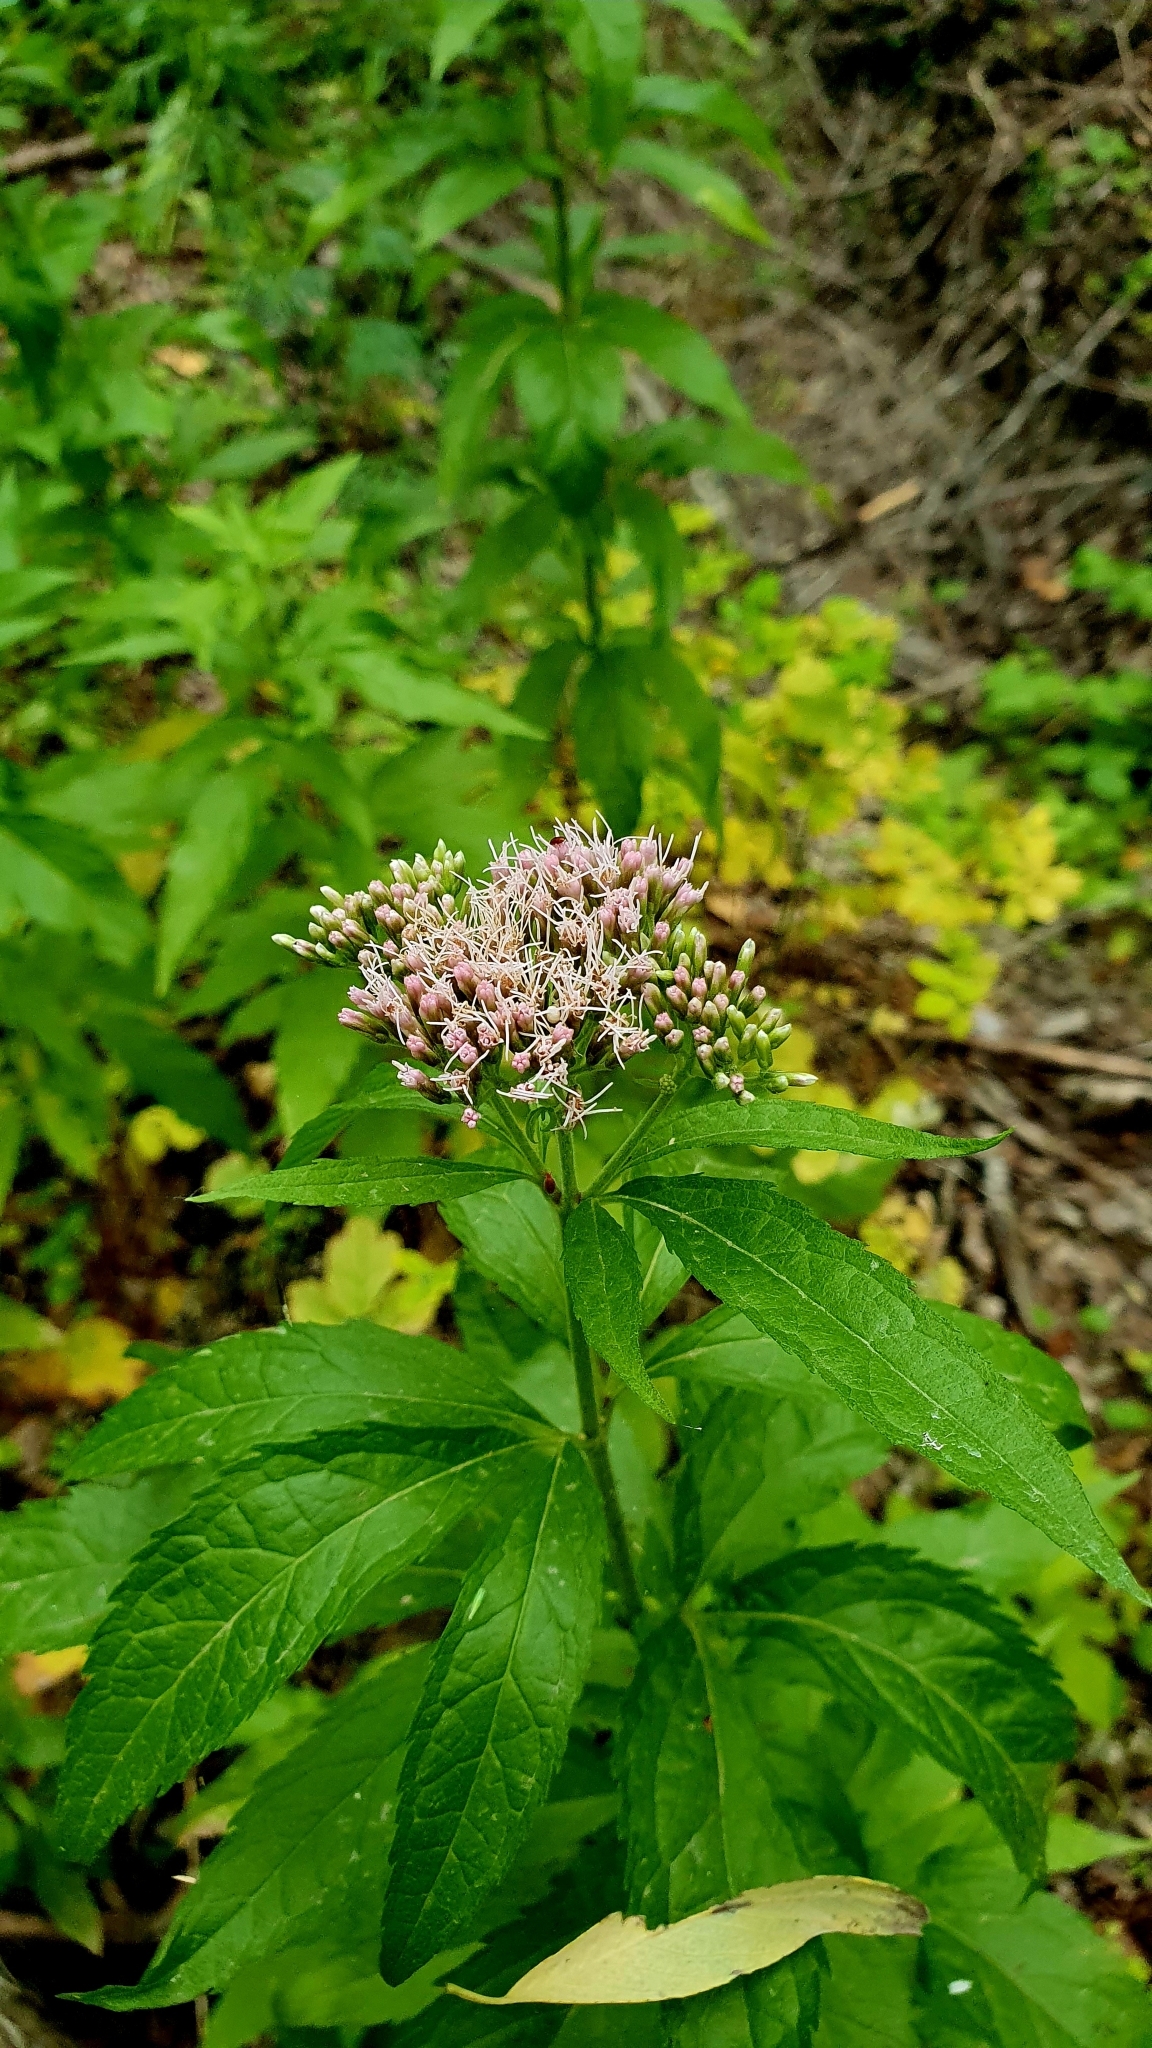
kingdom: Plantae
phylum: Tracheophyta
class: Magnoliopsida
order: Asterales
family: Asteraceae
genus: Eupatorium
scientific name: Eupatorium cannabinum
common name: Hemp-agrimony
